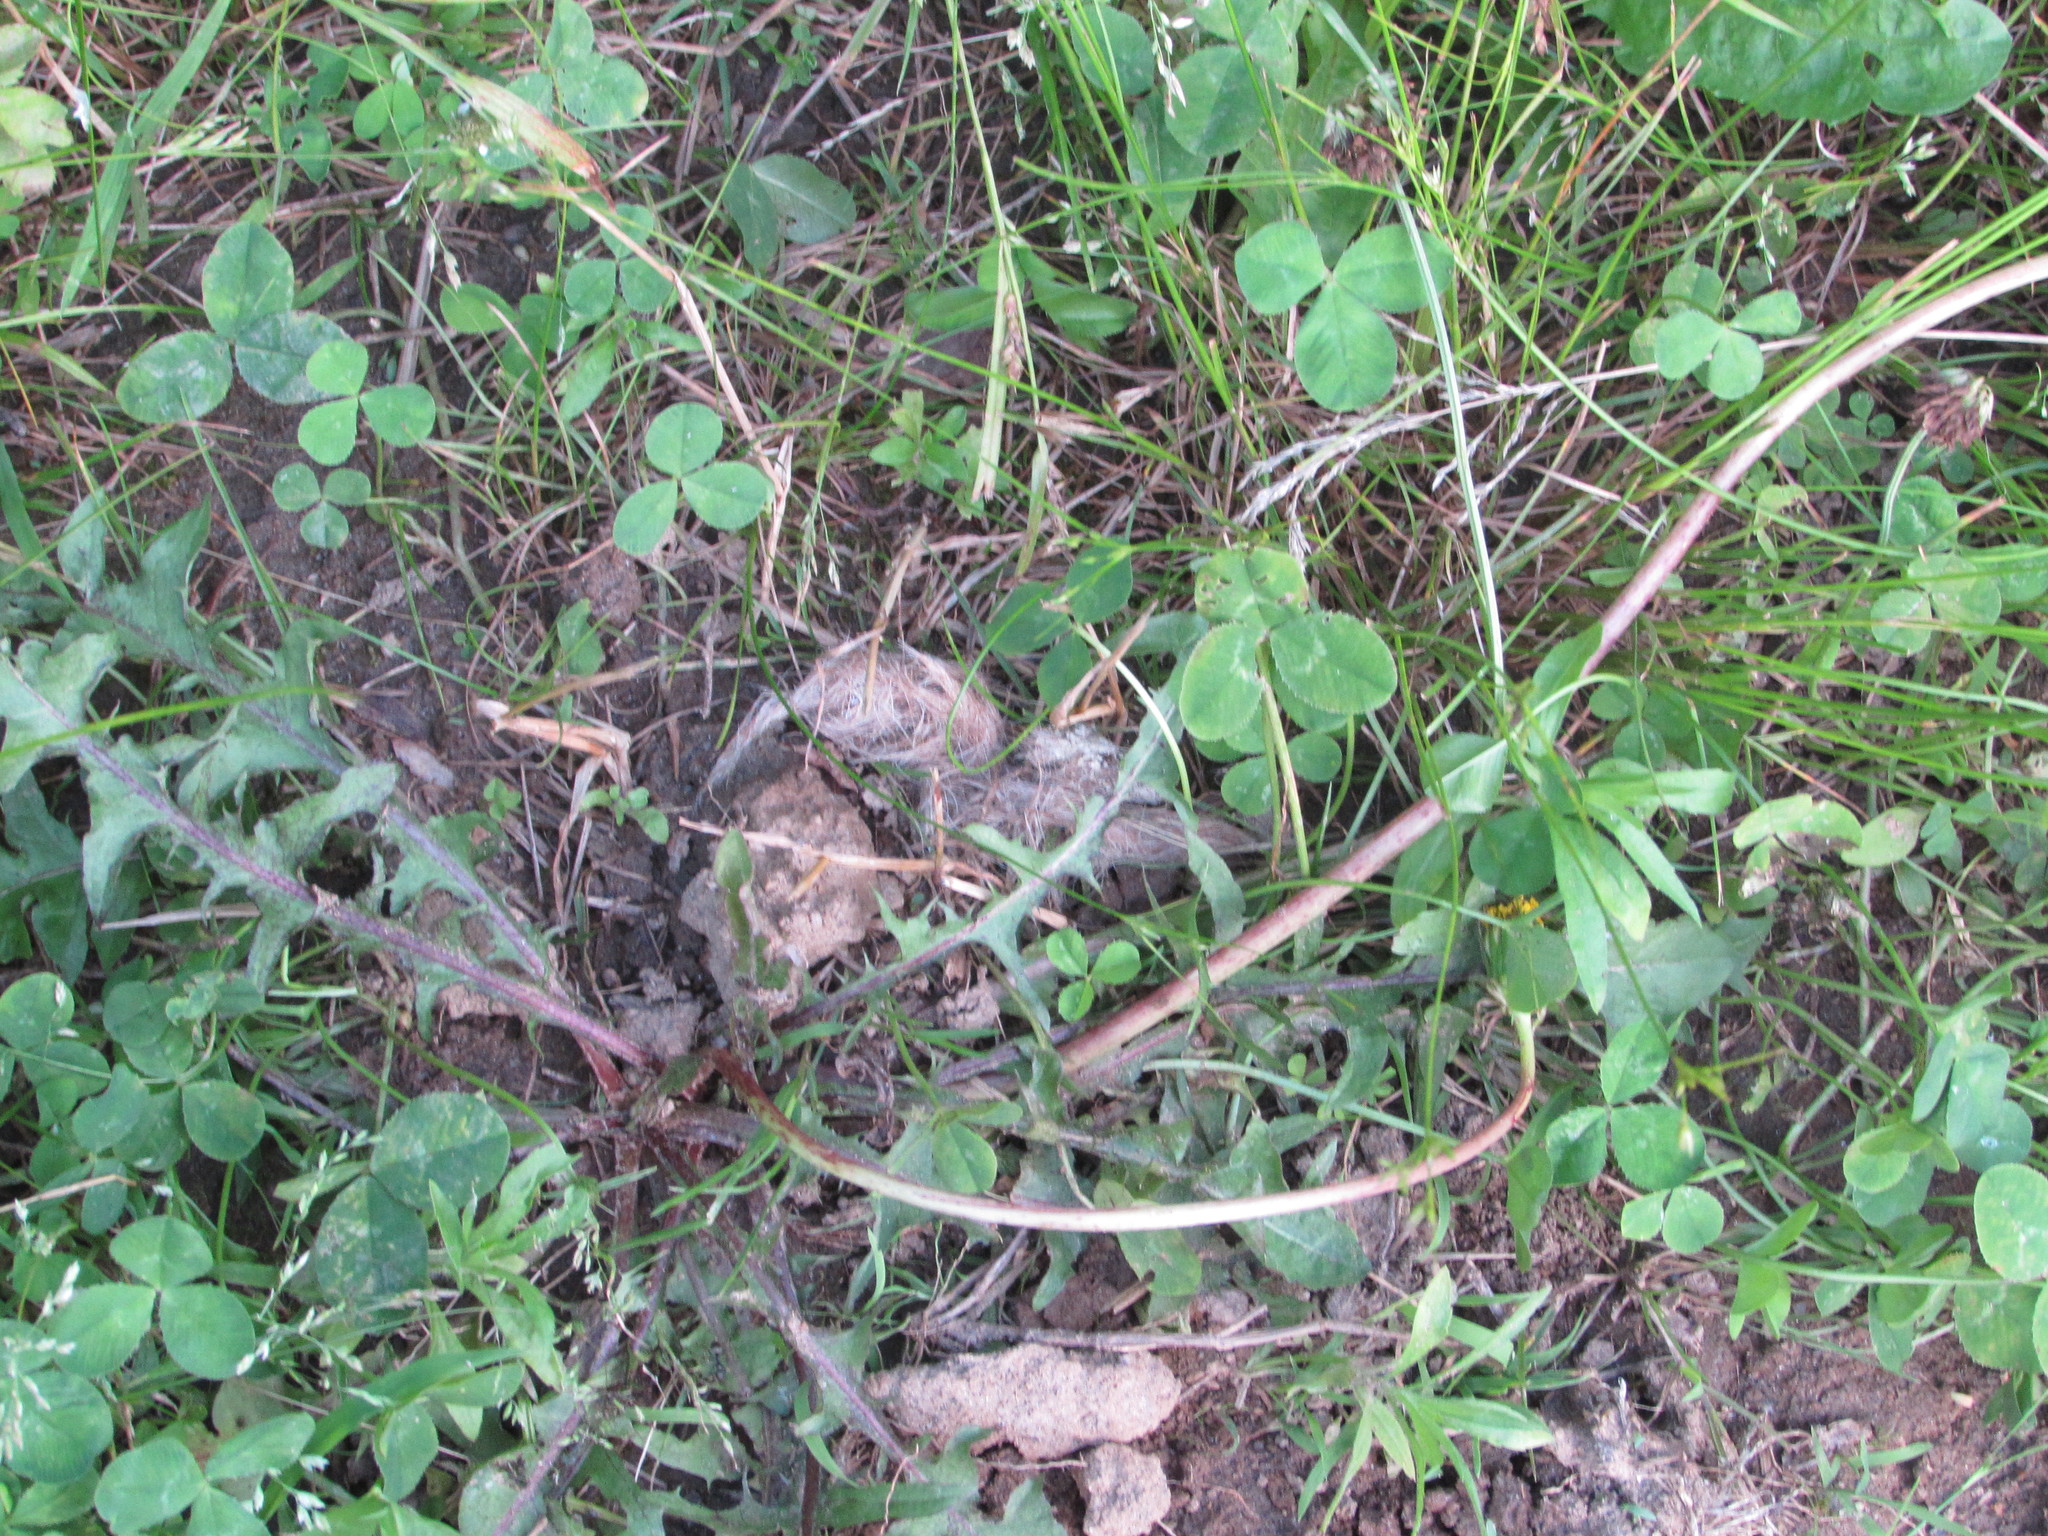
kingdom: Animalia
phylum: Chordata
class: Mammalia
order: Carnivora
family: Canidae
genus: Canis
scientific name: Canis latrans
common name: Coyote
